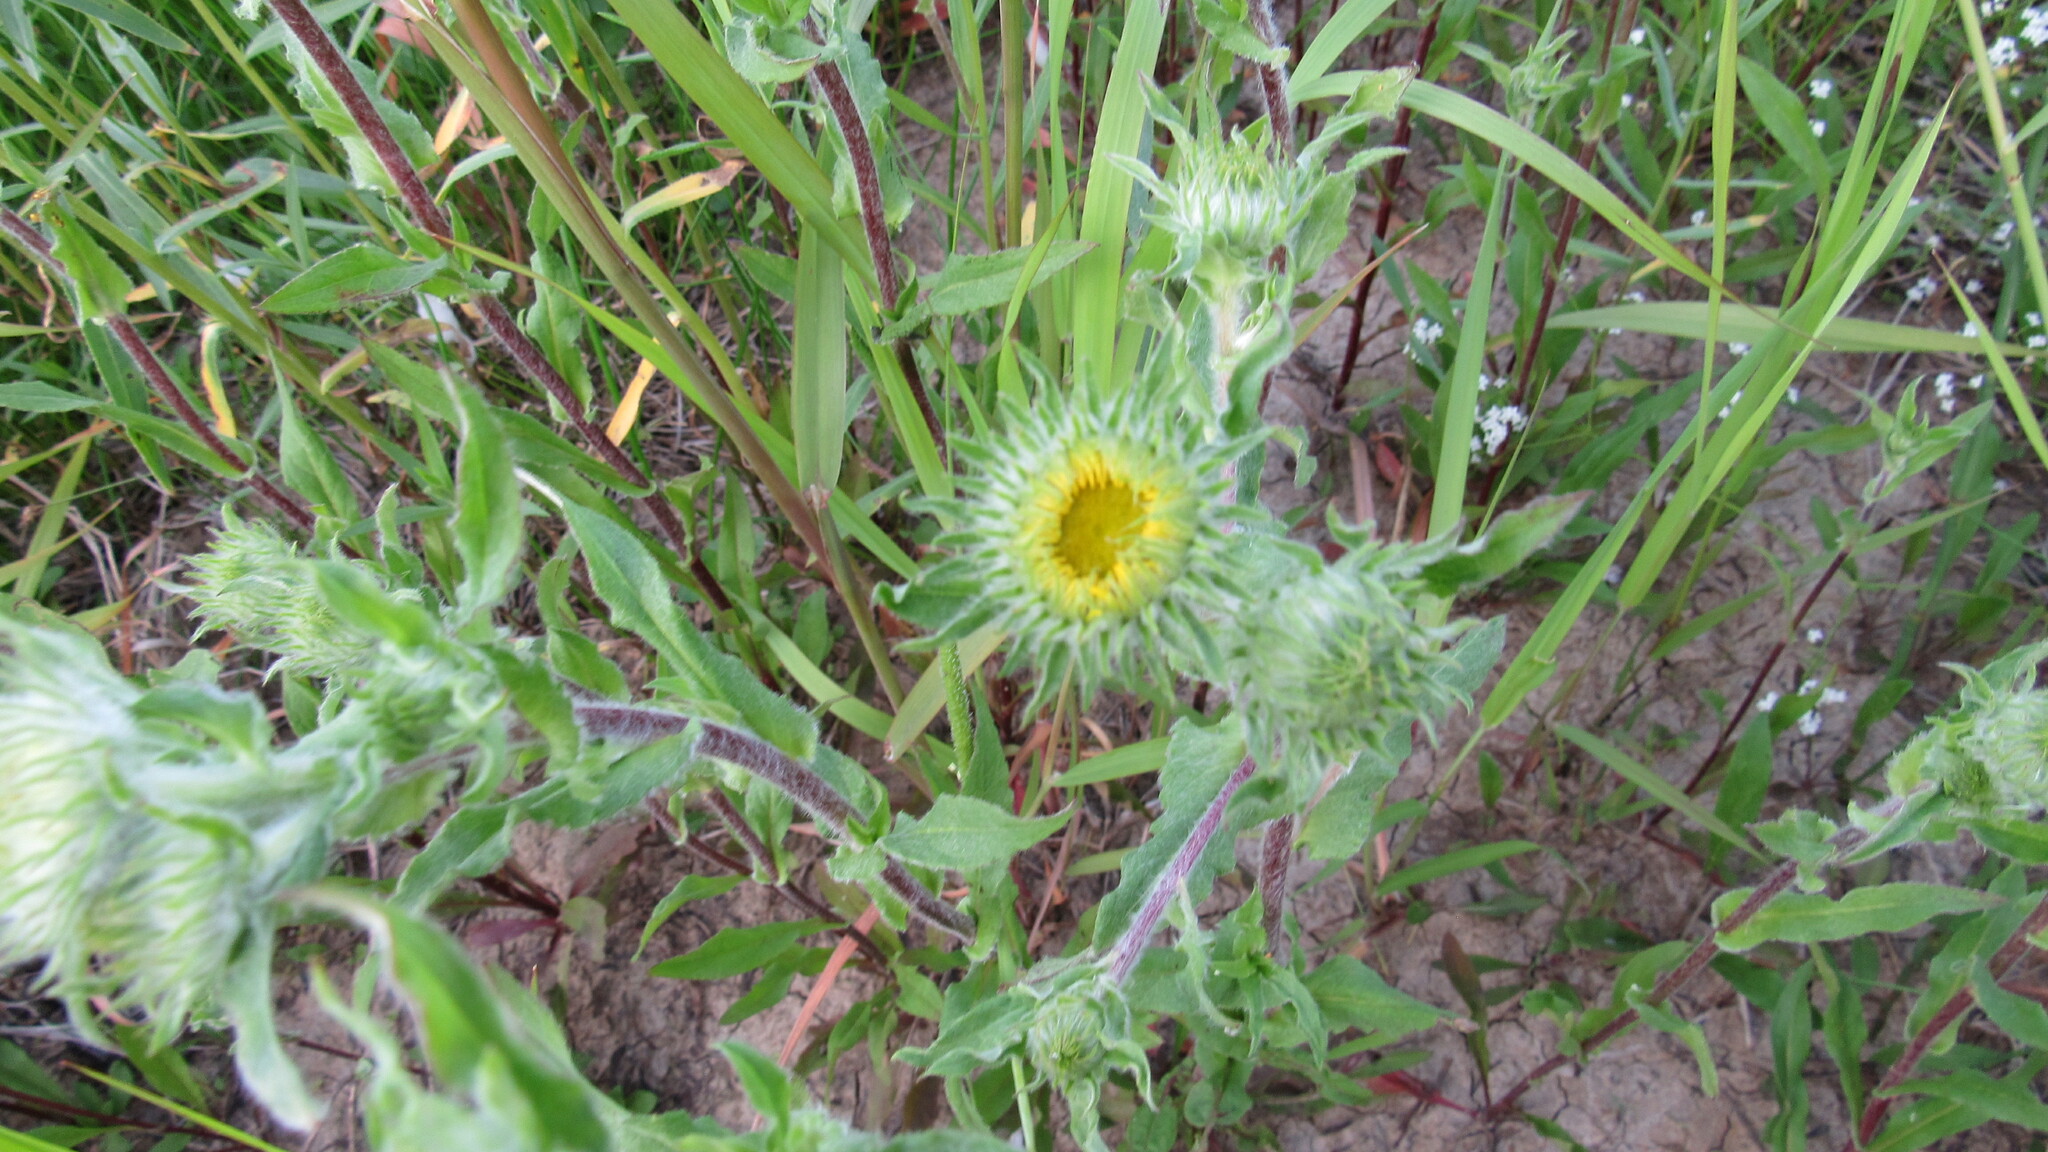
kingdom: Plantae
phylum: Tracheophyta
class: Magnoliopsida
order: Asterales
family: Asteraceae
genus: Pentanema
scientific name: Pentanema britannicum
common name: British elecampane
